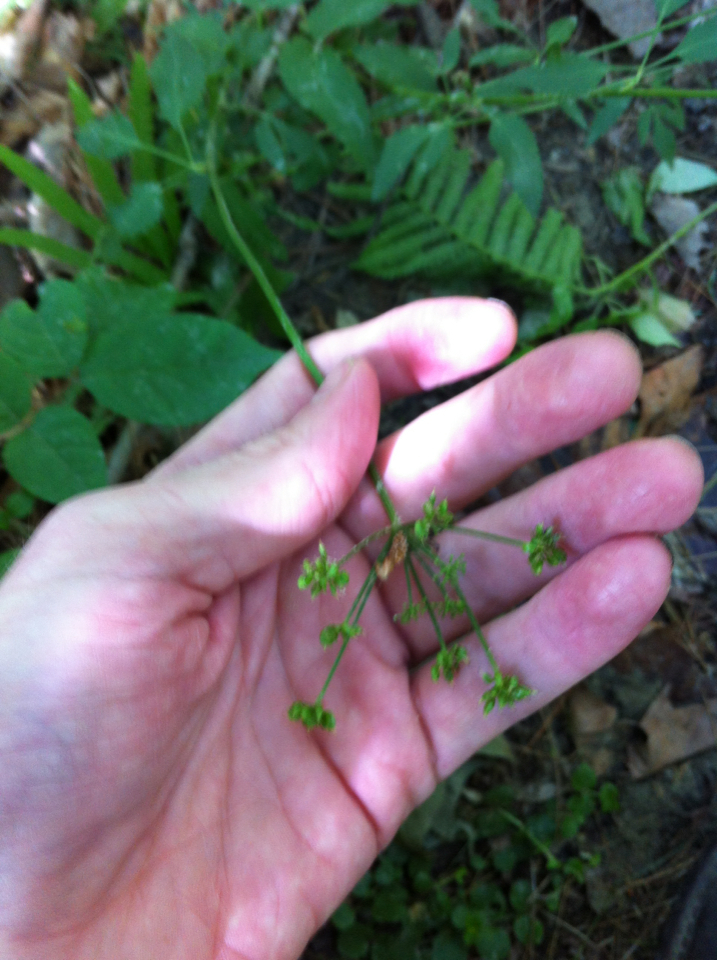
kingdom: Plantae
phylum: Tracheophyta
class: Magnoliopsida
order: Apiales
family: Apiaceae
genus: Zizia
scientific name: Zizia aurea
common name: Golden alexanders
